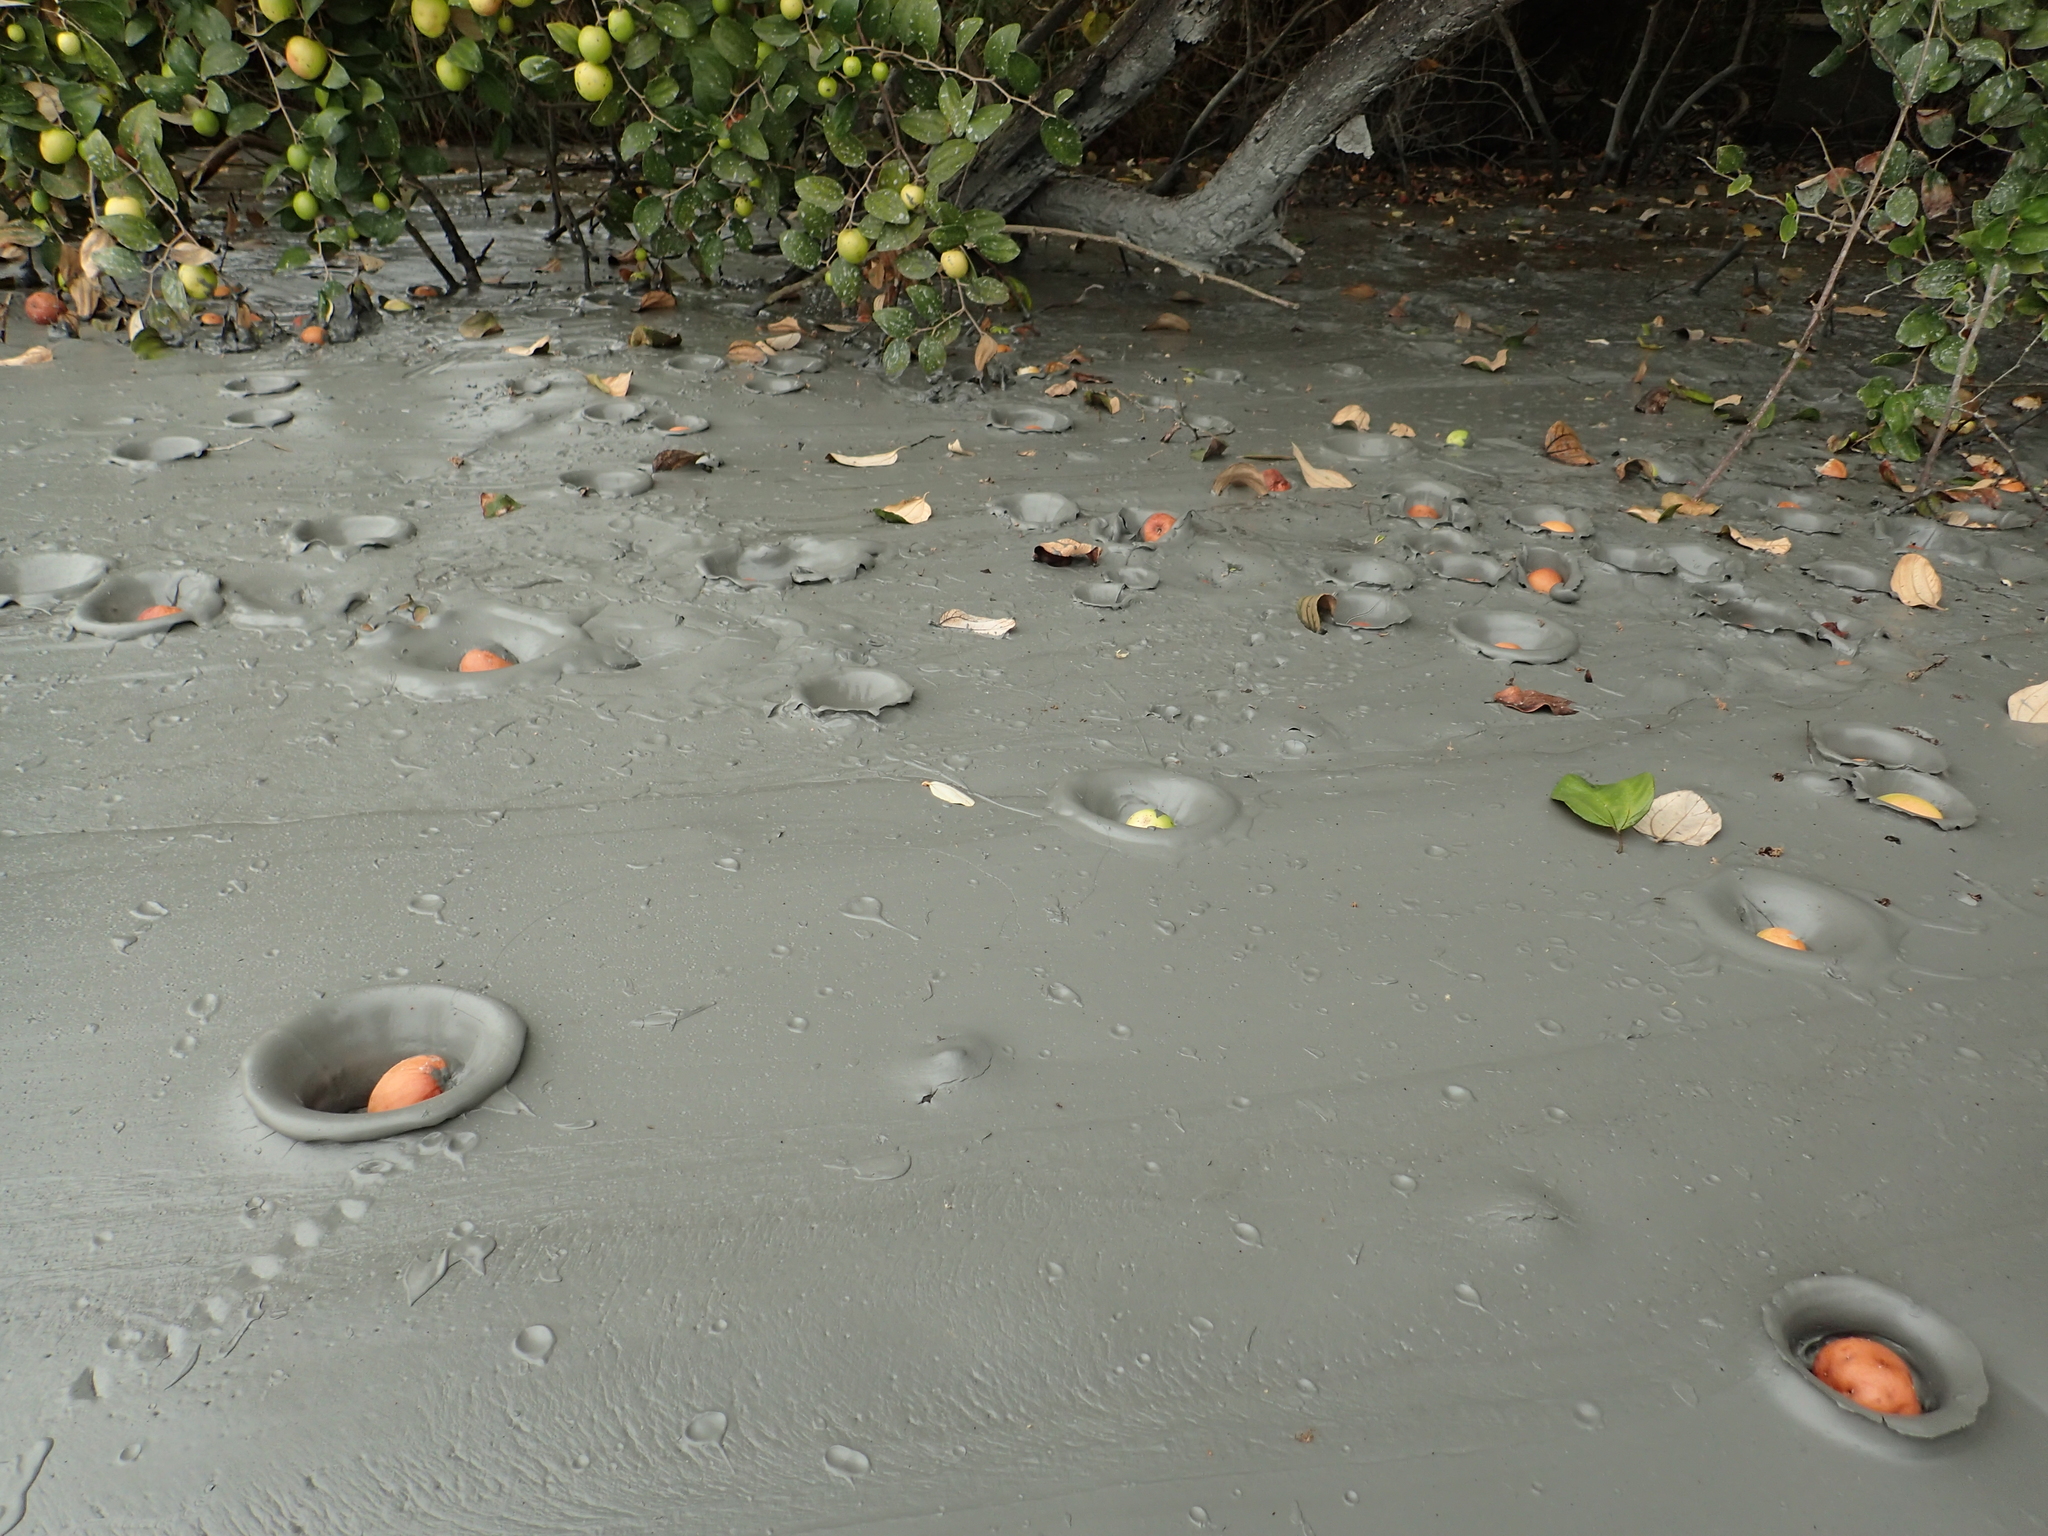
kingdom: Plantae
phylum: Tracheophyta
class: Magnoliopsida
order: Rosales
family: Rhamnaceae
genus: Ziziphus
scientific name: Ziziphus mauritiana
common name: Indian jujube
